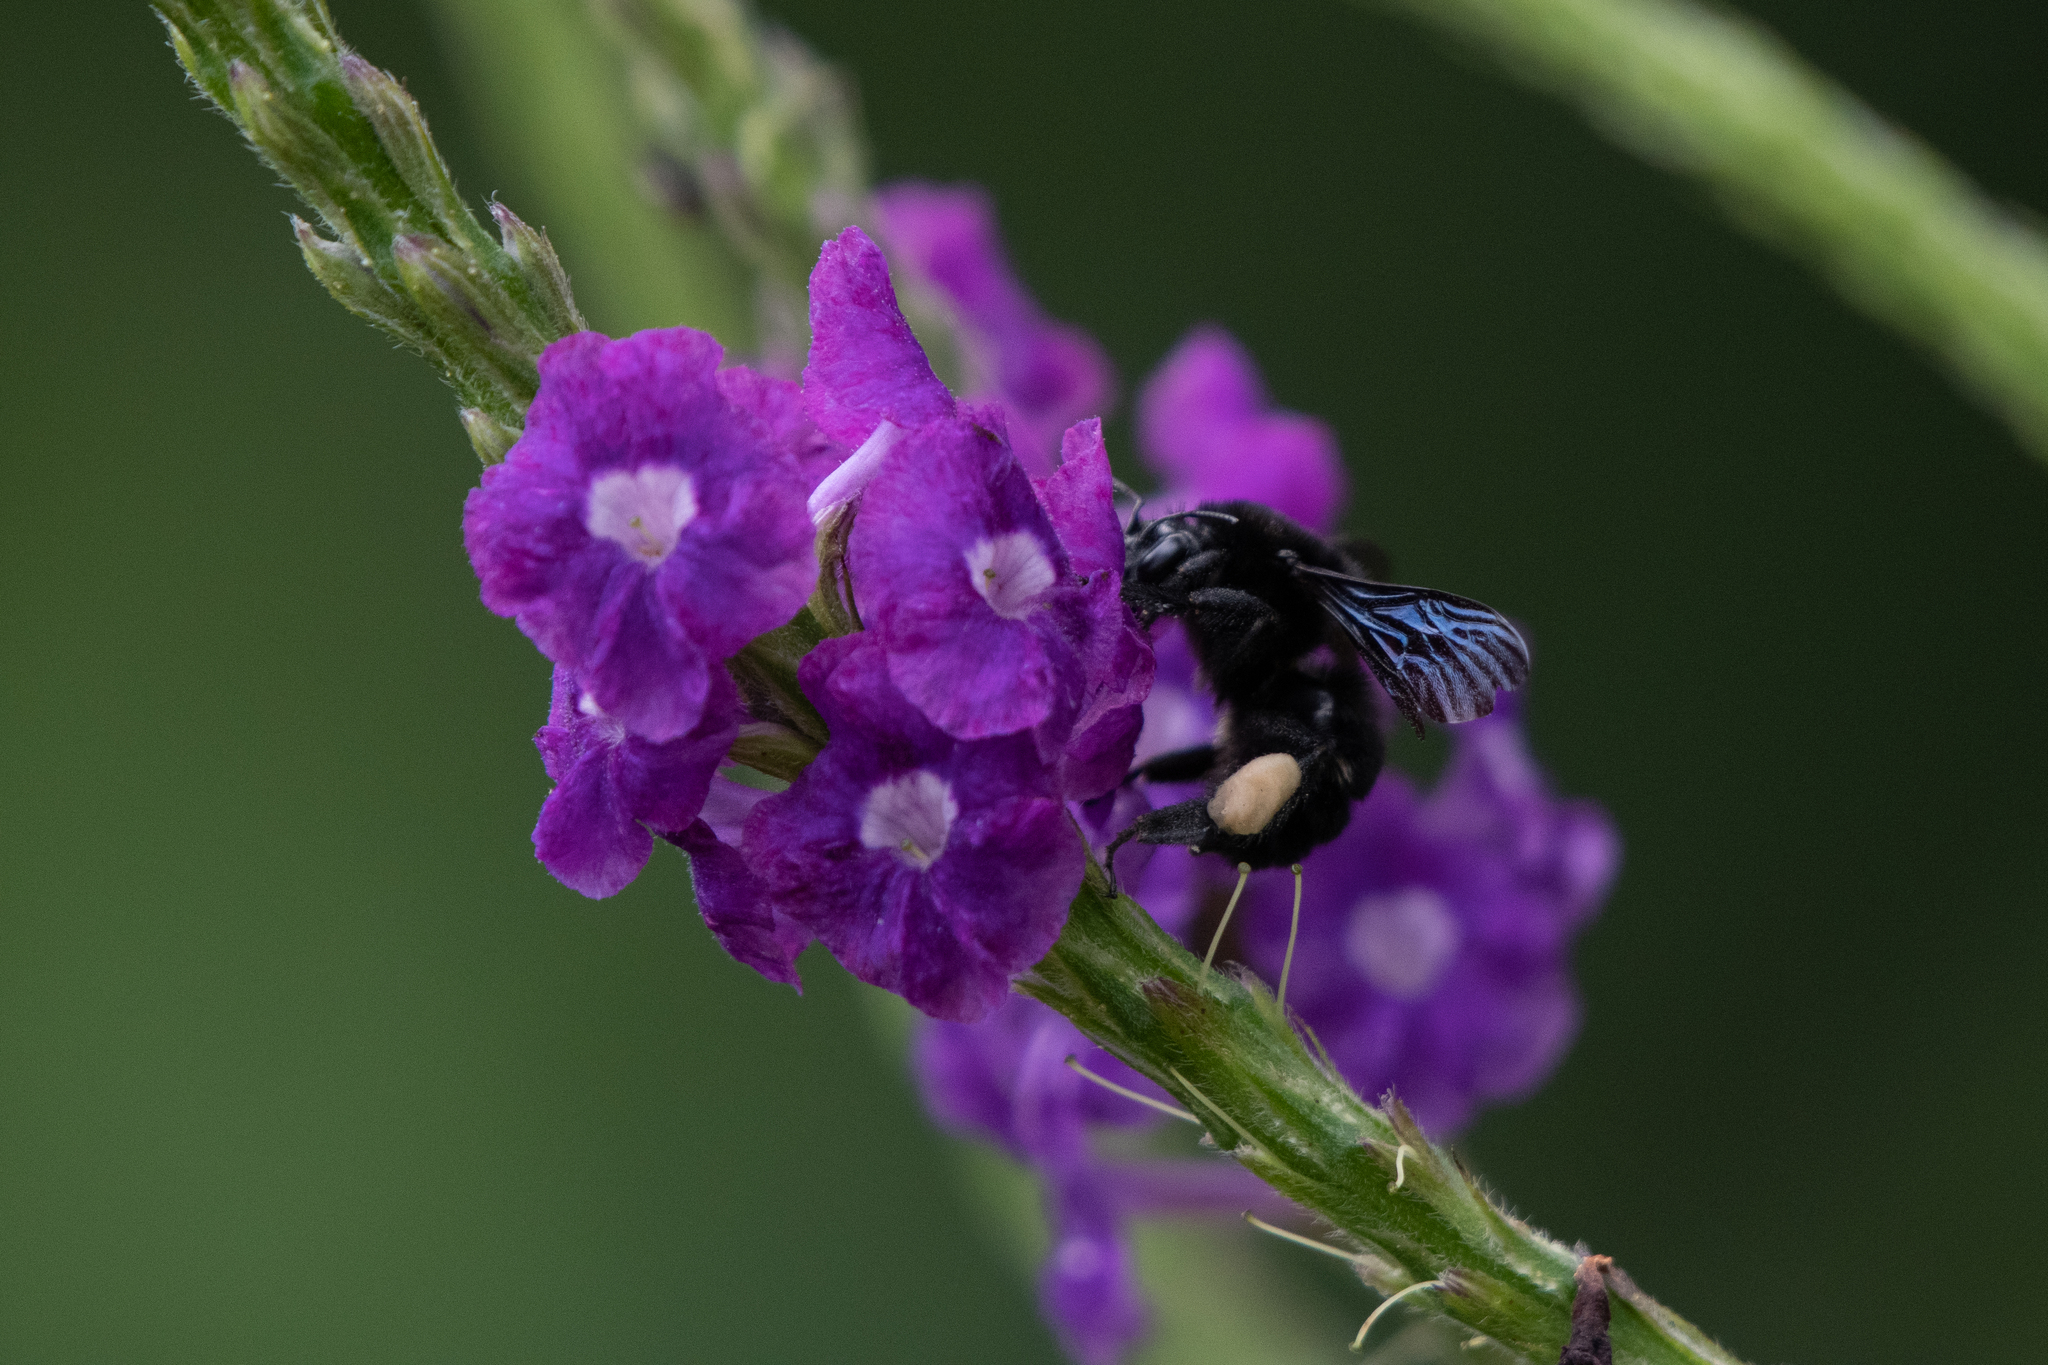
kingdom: Animalia
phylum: Arthropoda
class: Insecta
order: Hymenoptera
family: Apidae
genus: Bombus
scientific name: Bombus pullatus
